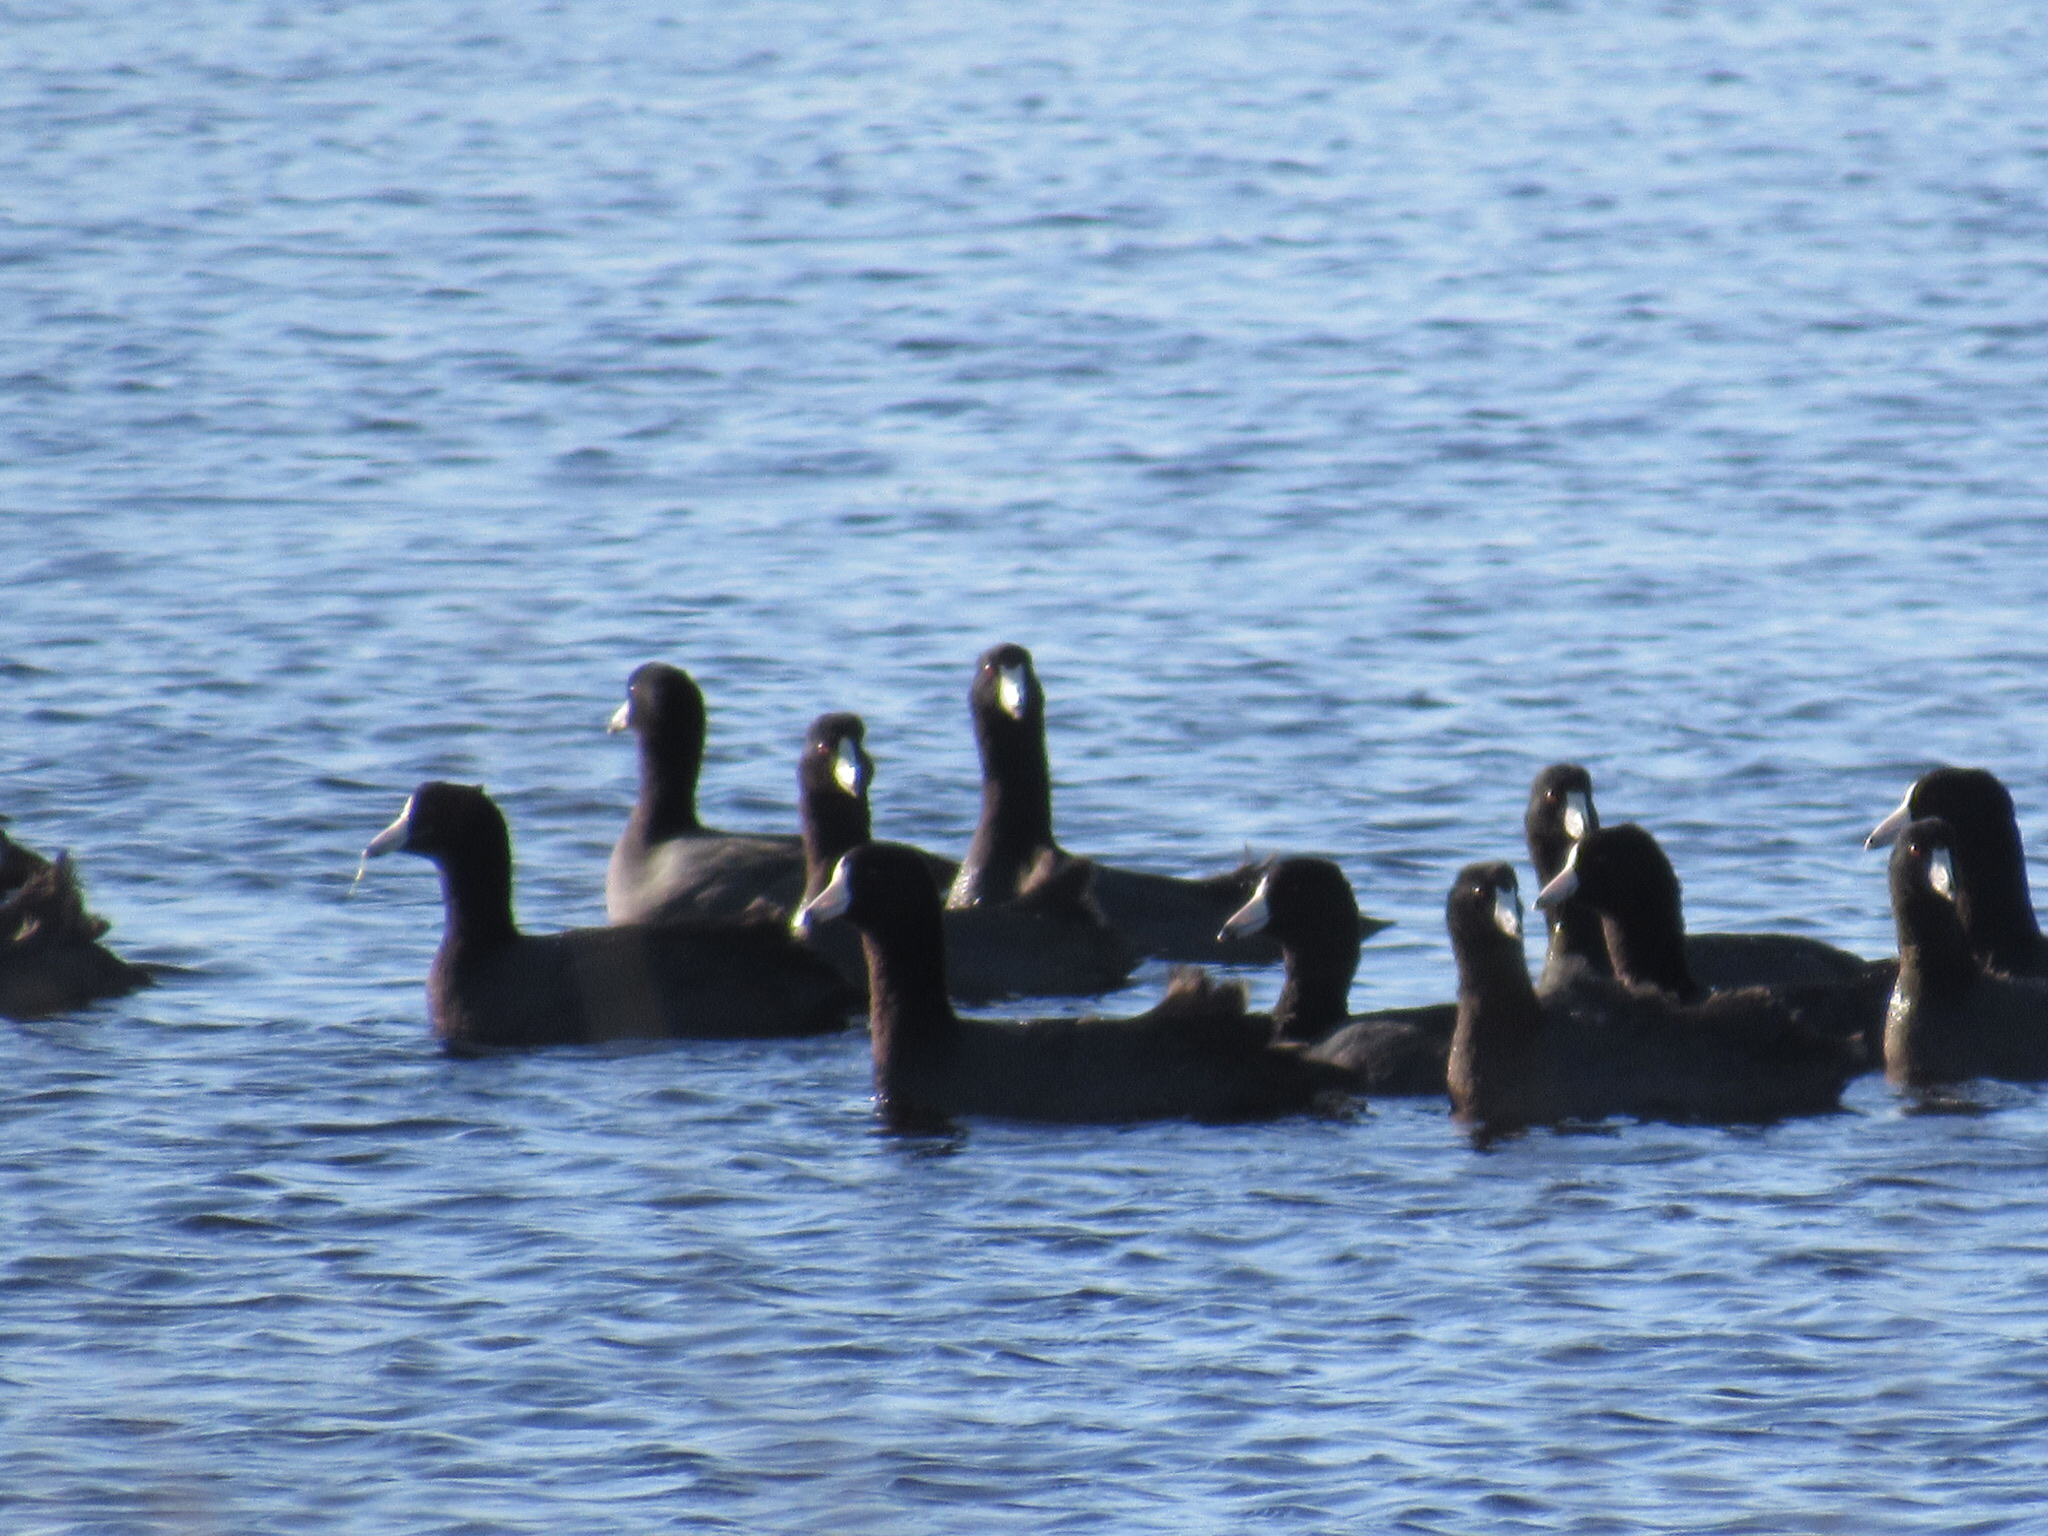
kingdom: Animalia
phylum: Chordata
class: Aves
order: Gruiformes
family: Rallidae
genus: Fulica
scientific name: Fulica americana
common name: American coot
